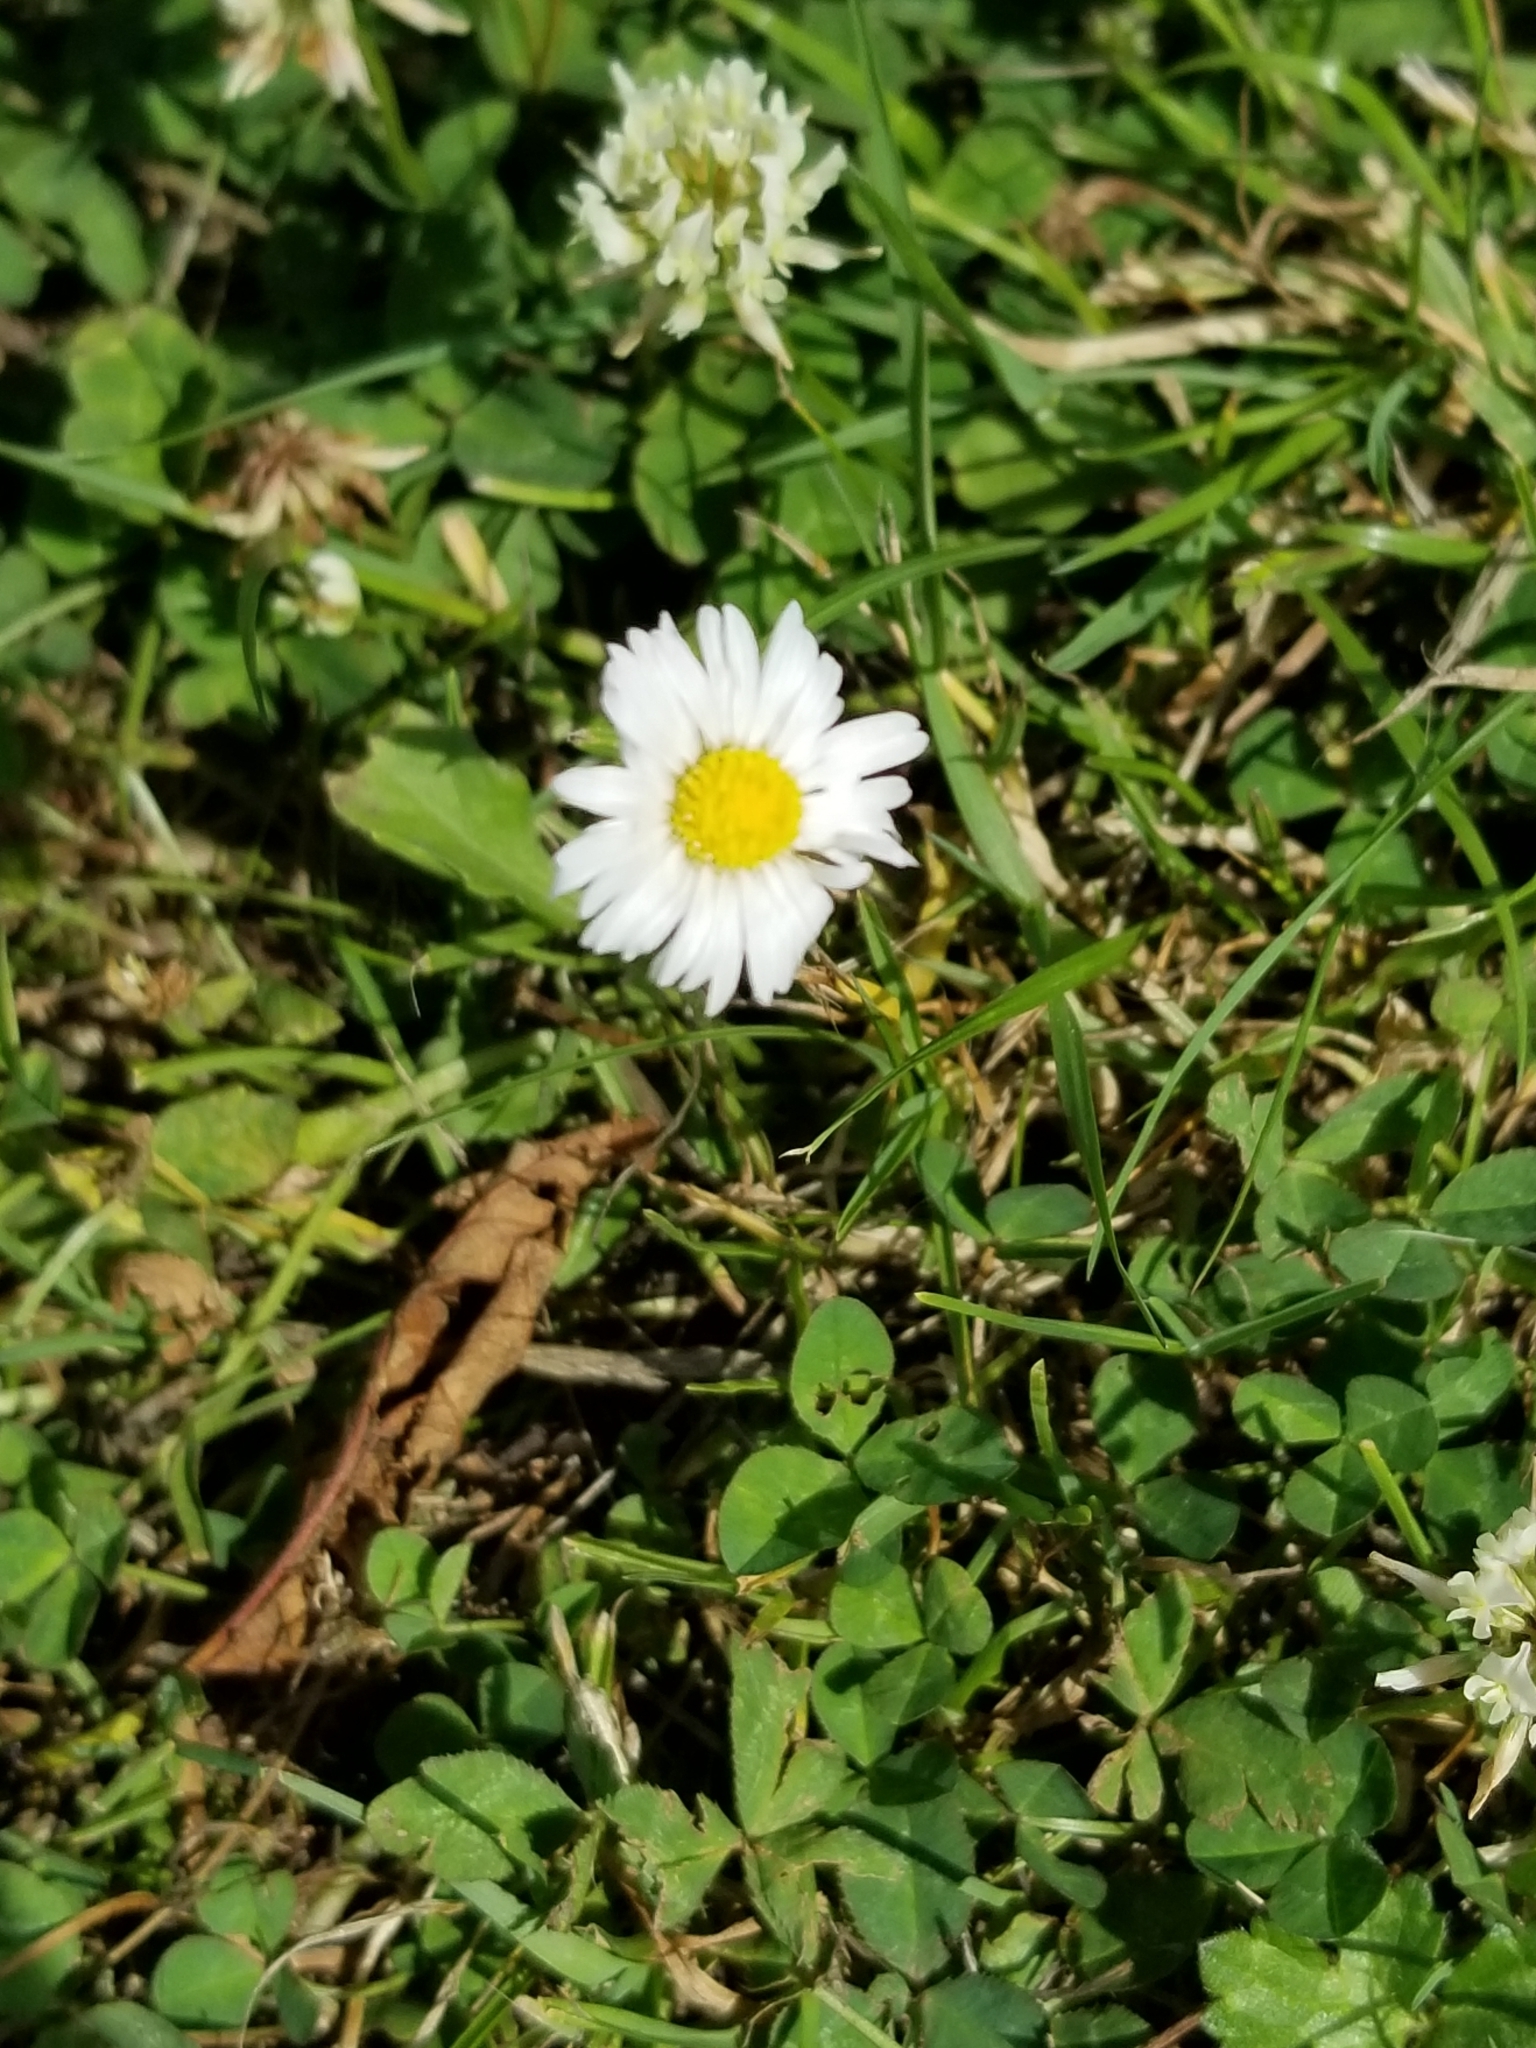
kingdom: Plantae
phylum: Tracheophyta
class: Magnoliopsida
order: Asterales
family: Asteraceae
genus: Bellis
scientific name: Bellis perennis
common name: Lawndaisy
